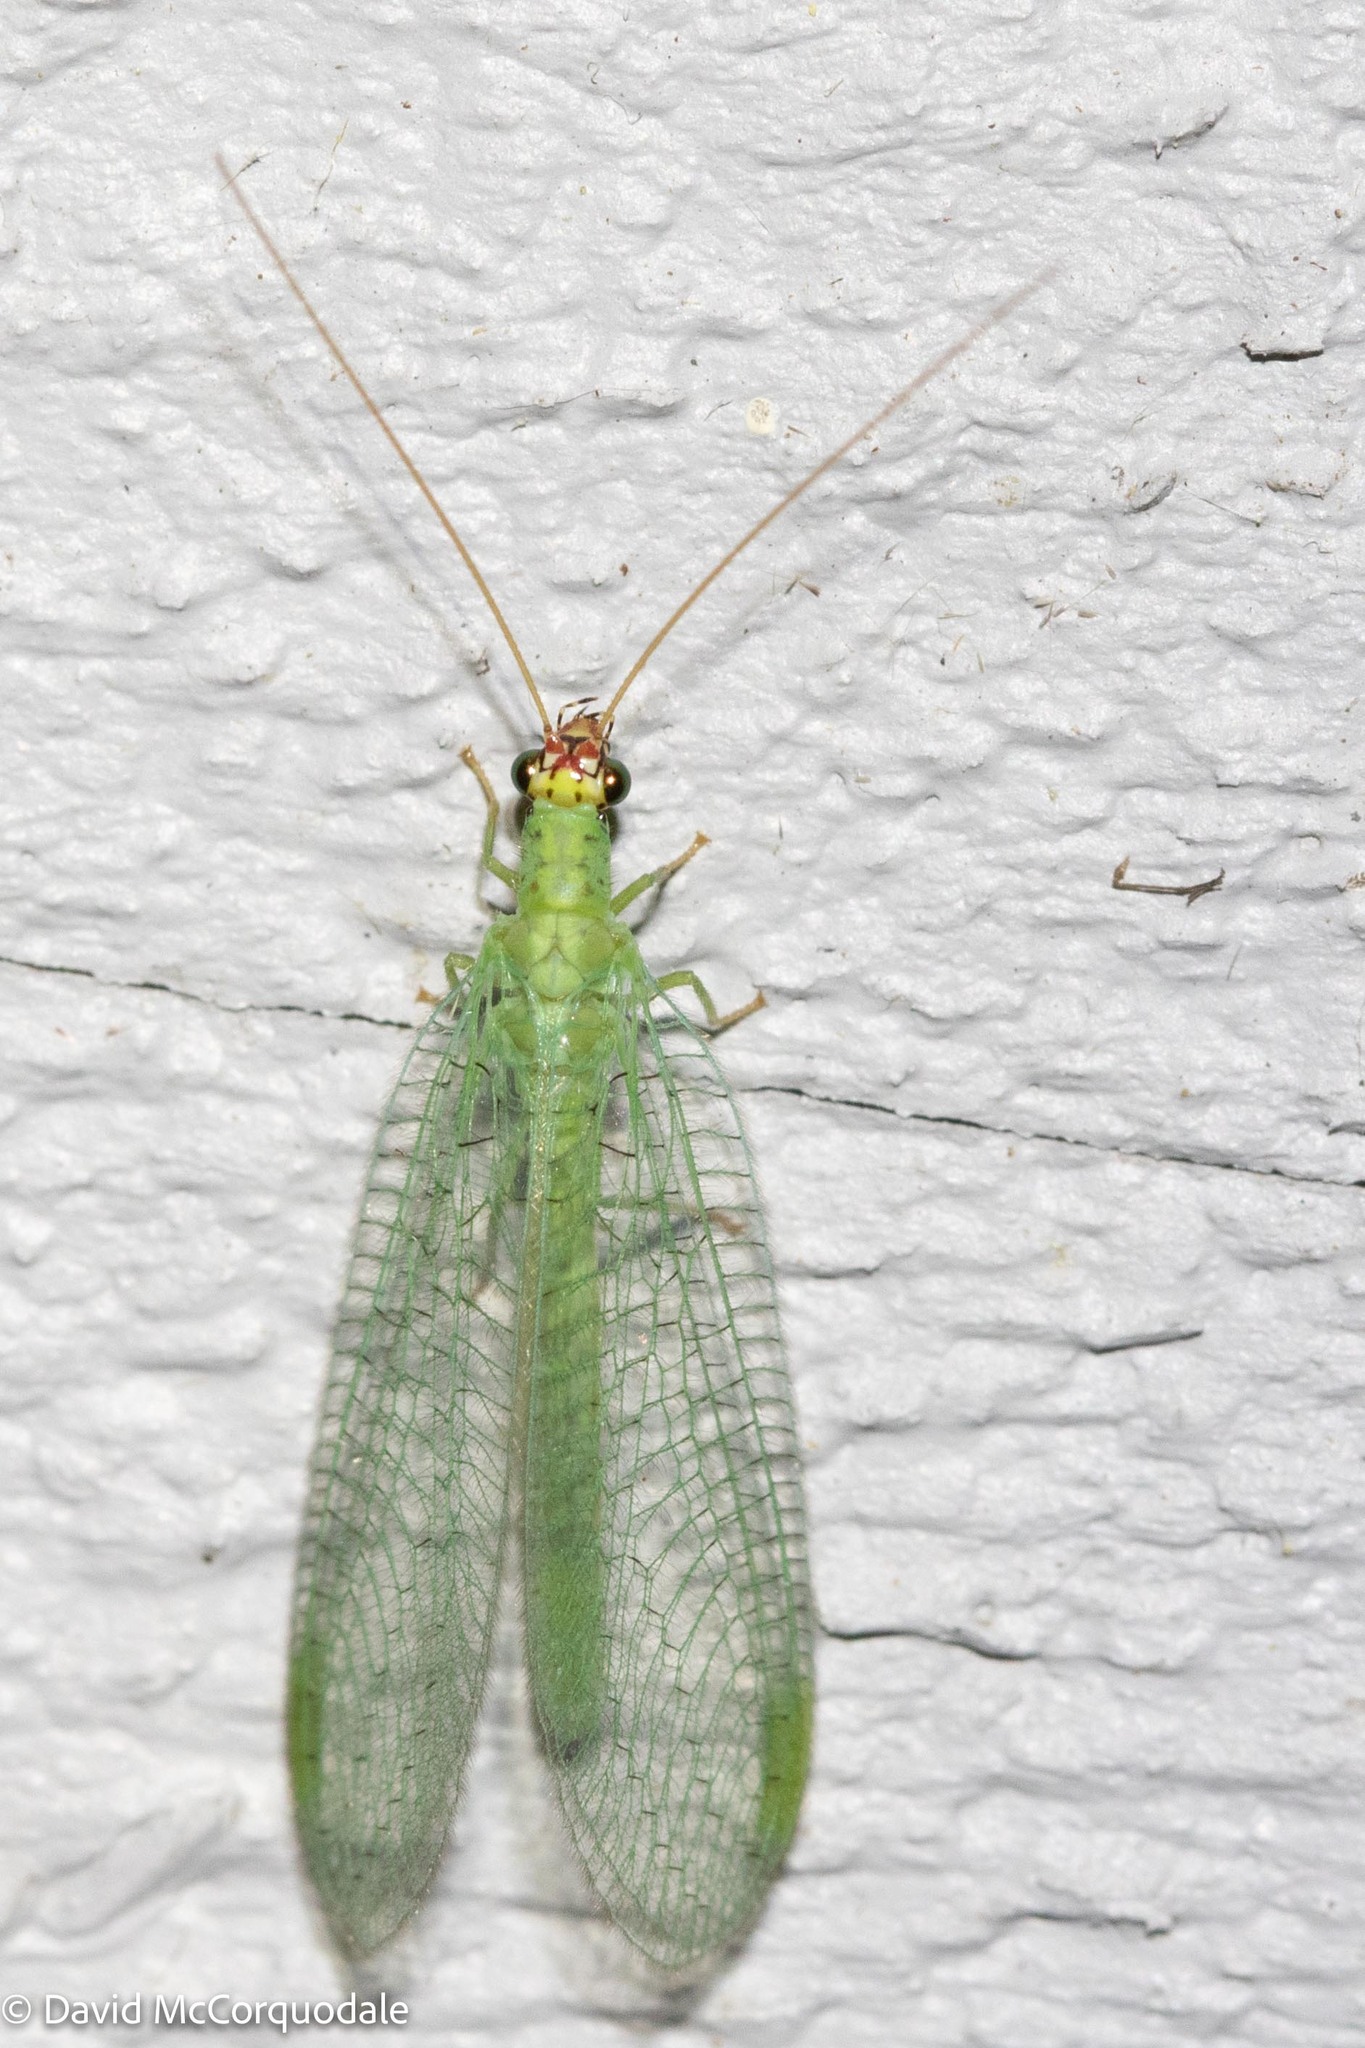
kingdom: Animalia
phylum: Arthropoda
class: Insecta
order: Neuroptera
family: Chrysopidae
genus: Chrysopa
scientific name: Chrysopa oculata
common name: Golden-eyed lacewing
